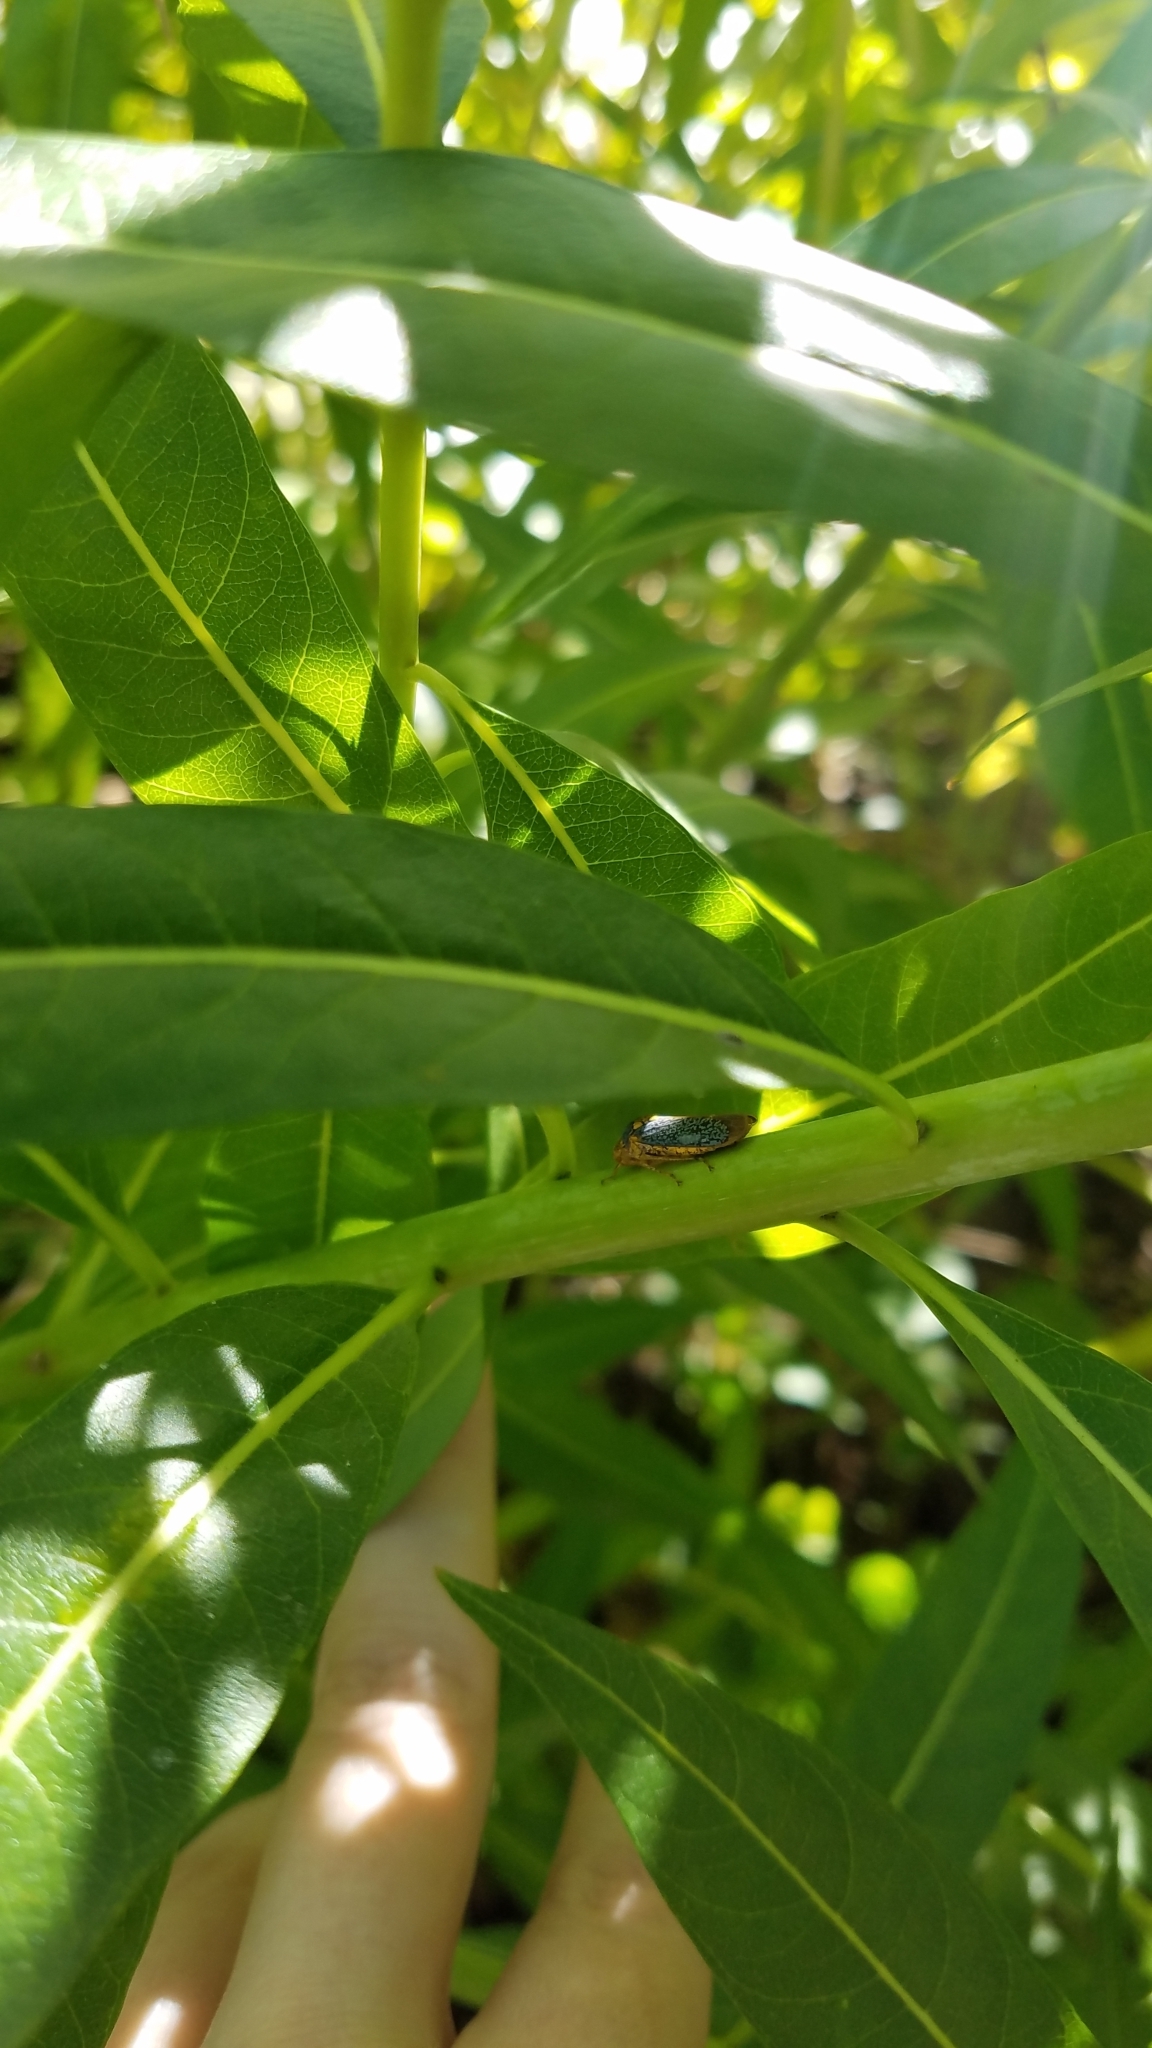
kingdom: Animalia
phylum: Arthropoda
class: Insecta
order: Hemiptera
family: Cicadellidae
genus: Oncometopia
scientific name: Oncometopia orbona
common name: Broad-headed sharpshooter
